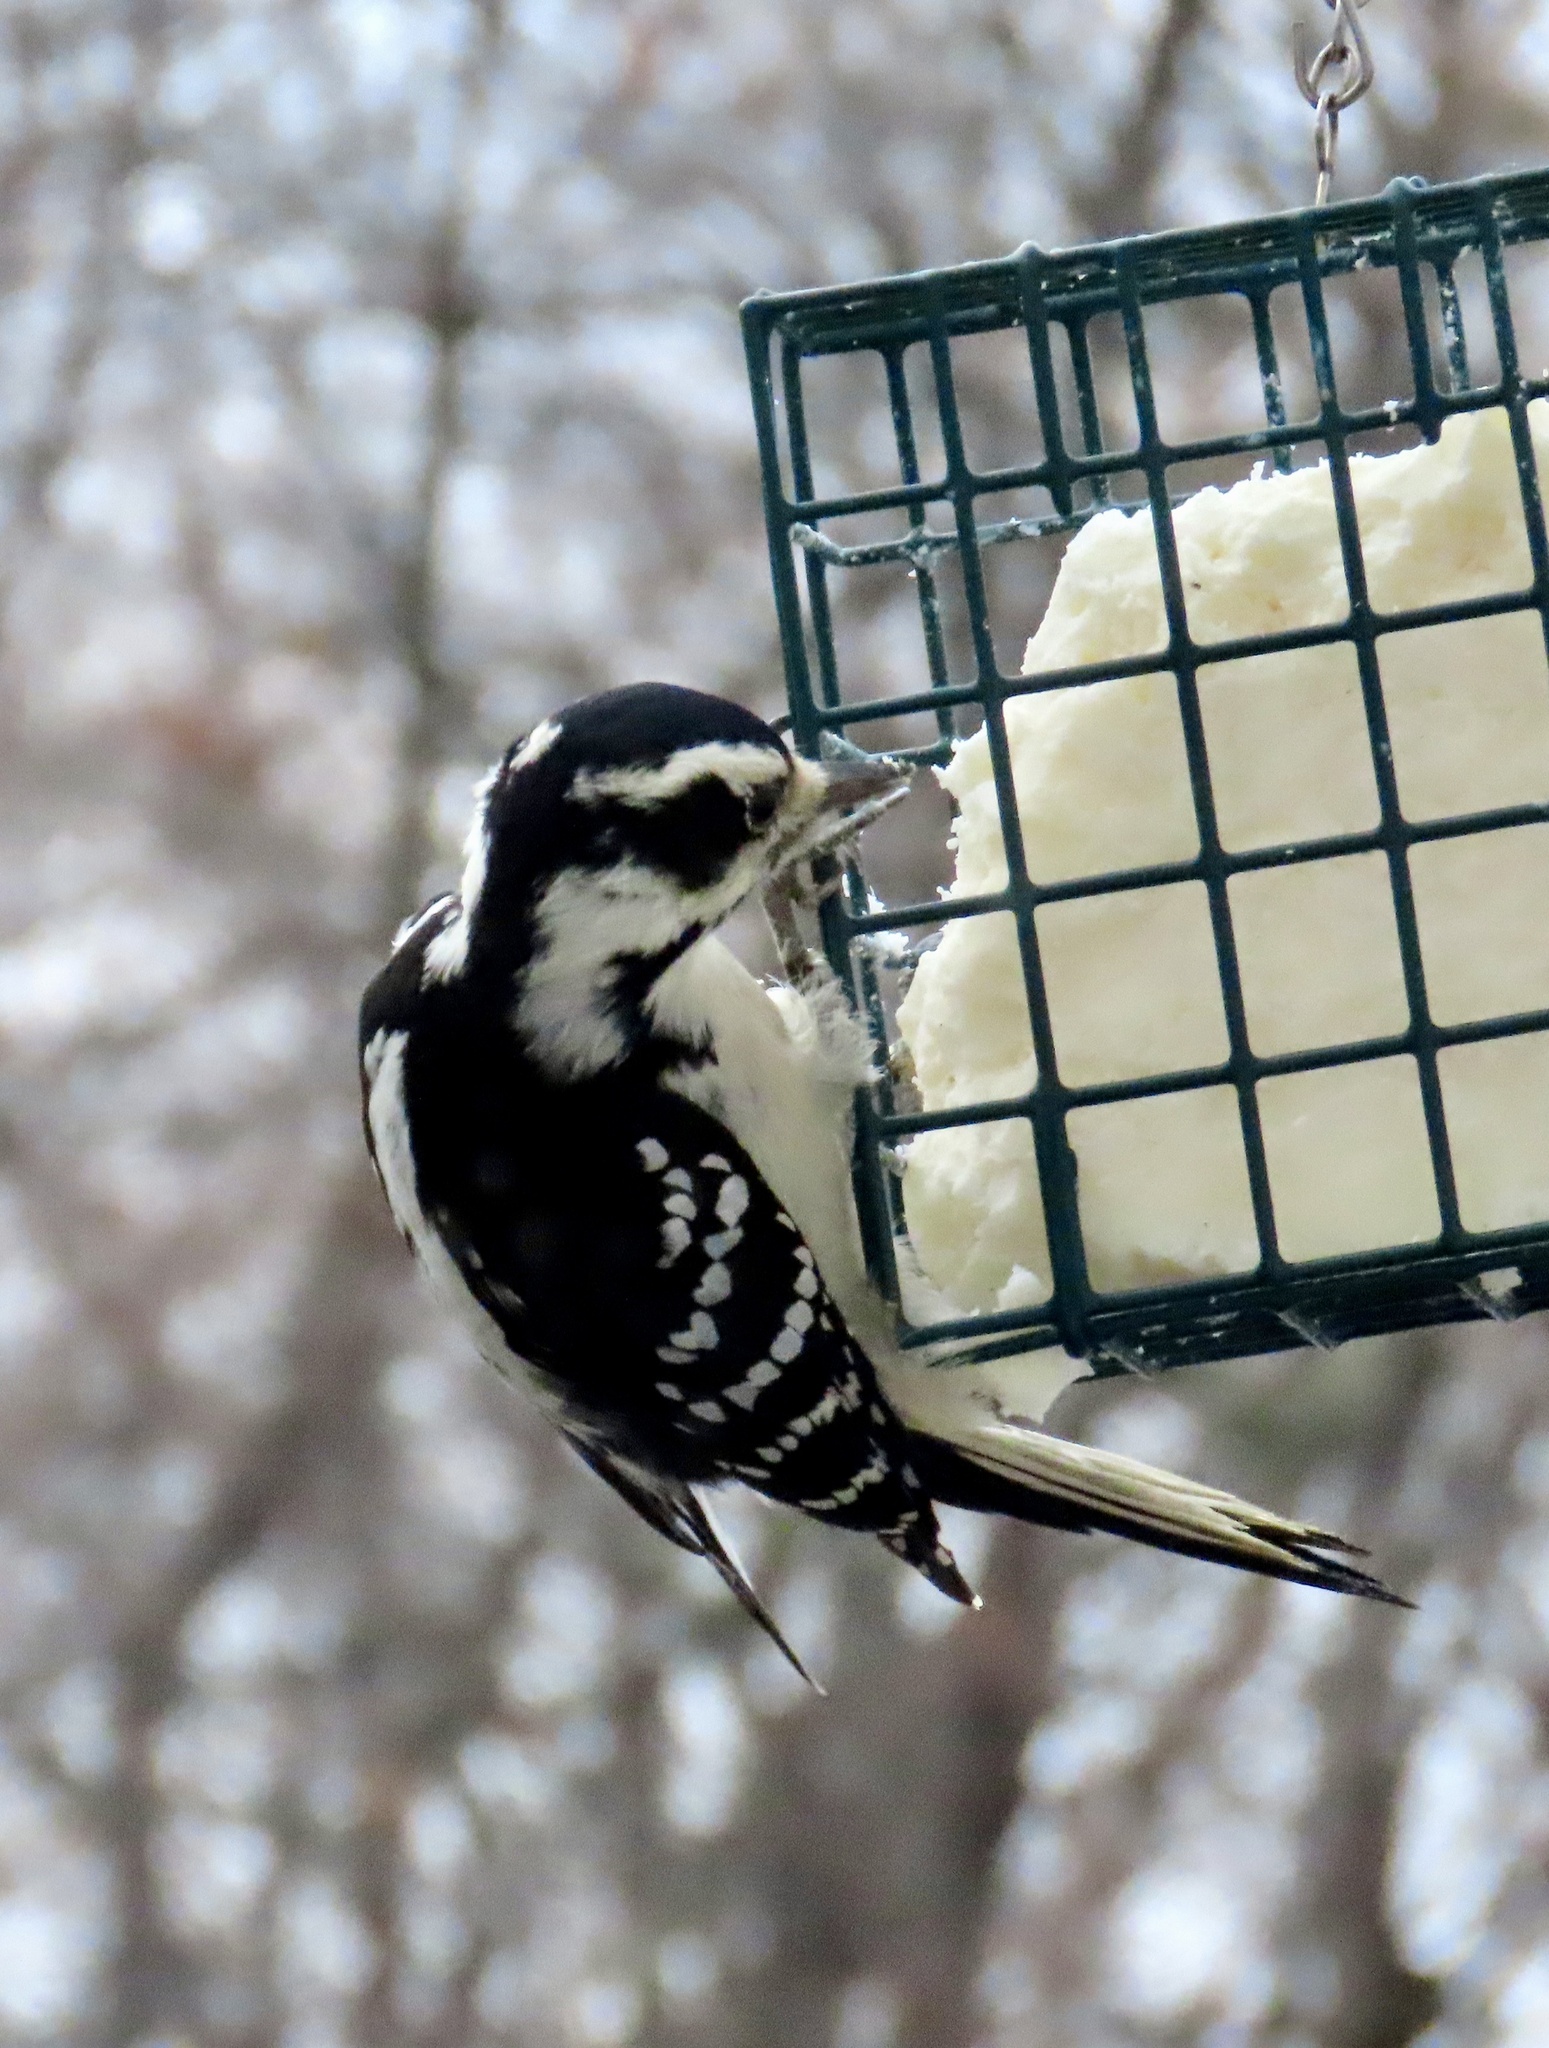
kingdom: Animalia
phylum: Chordata
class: Aves
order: Piciformes
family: Picidae
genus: Leuconotopicus
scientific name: Leuconotopicus villosus
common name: Hairy woodpecker
